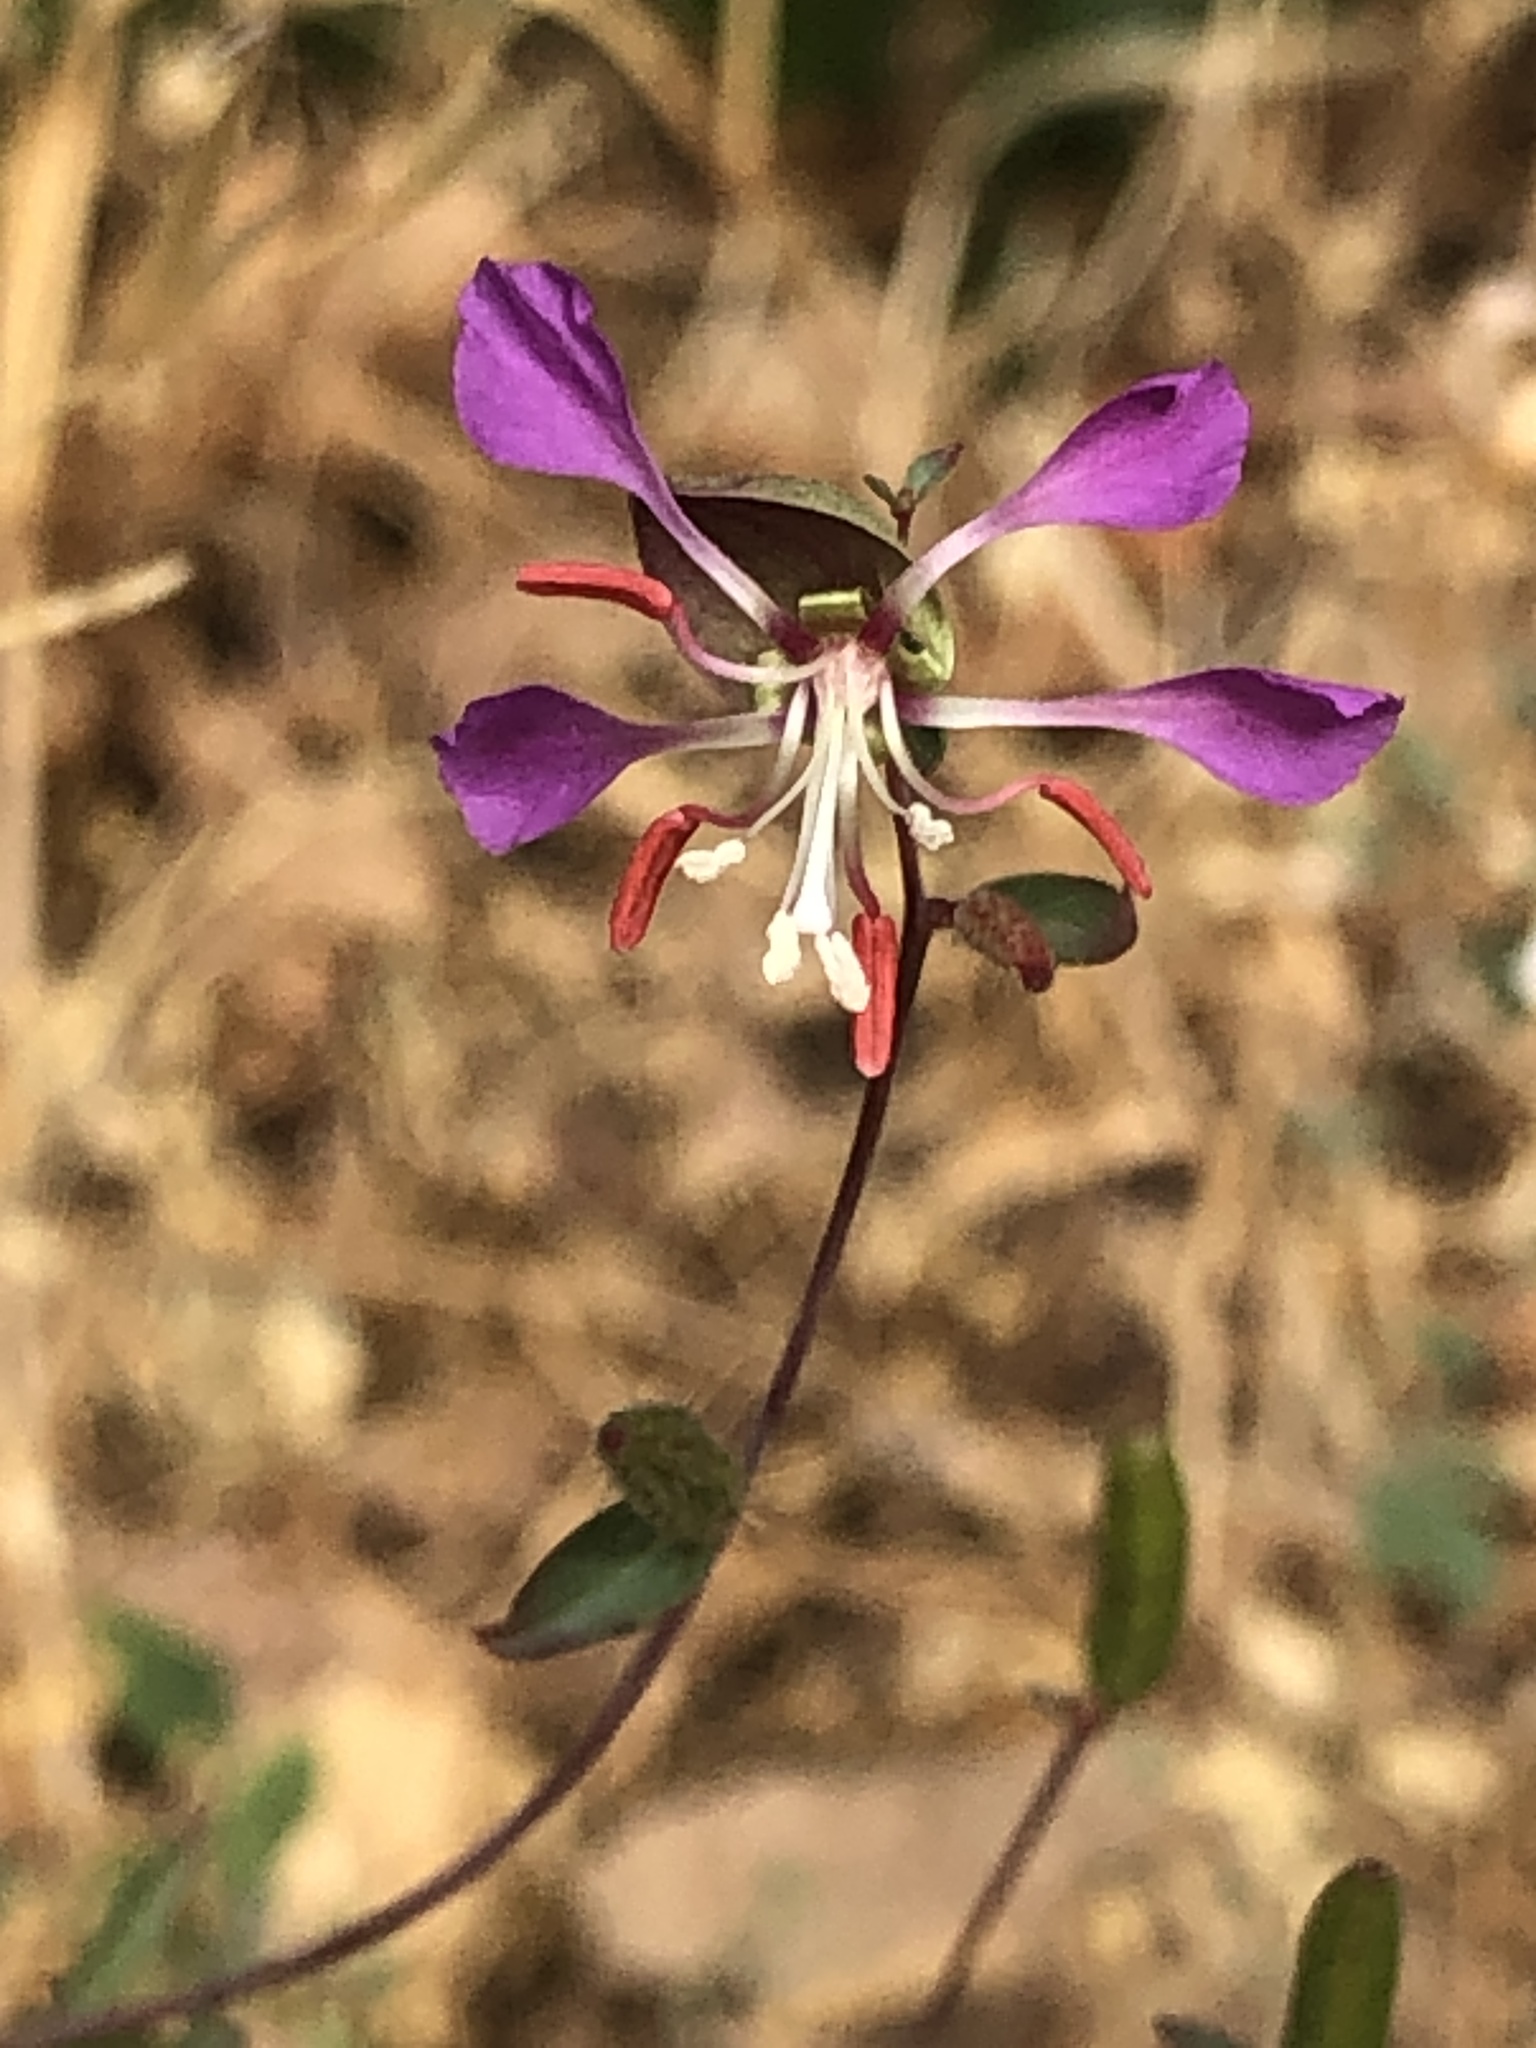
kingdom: Plantae
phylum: Tracheophyta
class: Magnoliopsida
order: Myrtales
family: Onagraceae
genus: Clarkia
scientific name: Clarkia unguiculata
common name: Clarkia
